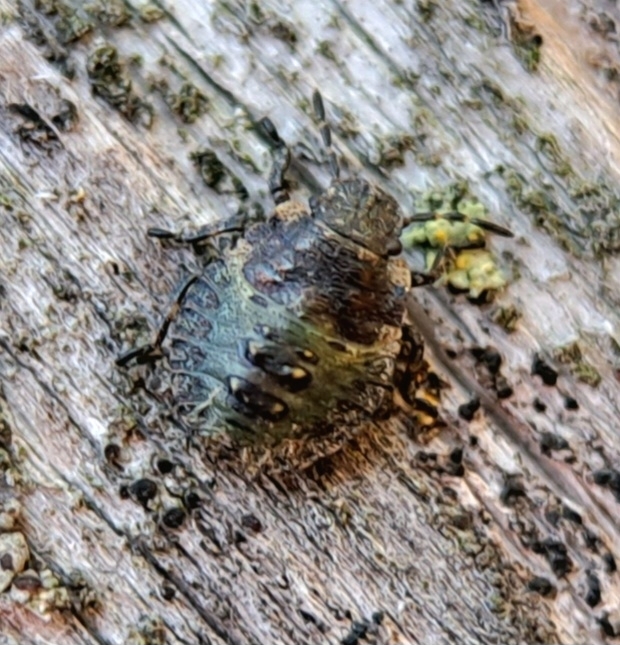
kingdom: Animalia
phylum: Arthropoda
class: Insecta
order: Hemiptera
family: Pentatomidae
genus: Pentatoma
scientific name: Pentatoma rufipes
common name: Forest bug
